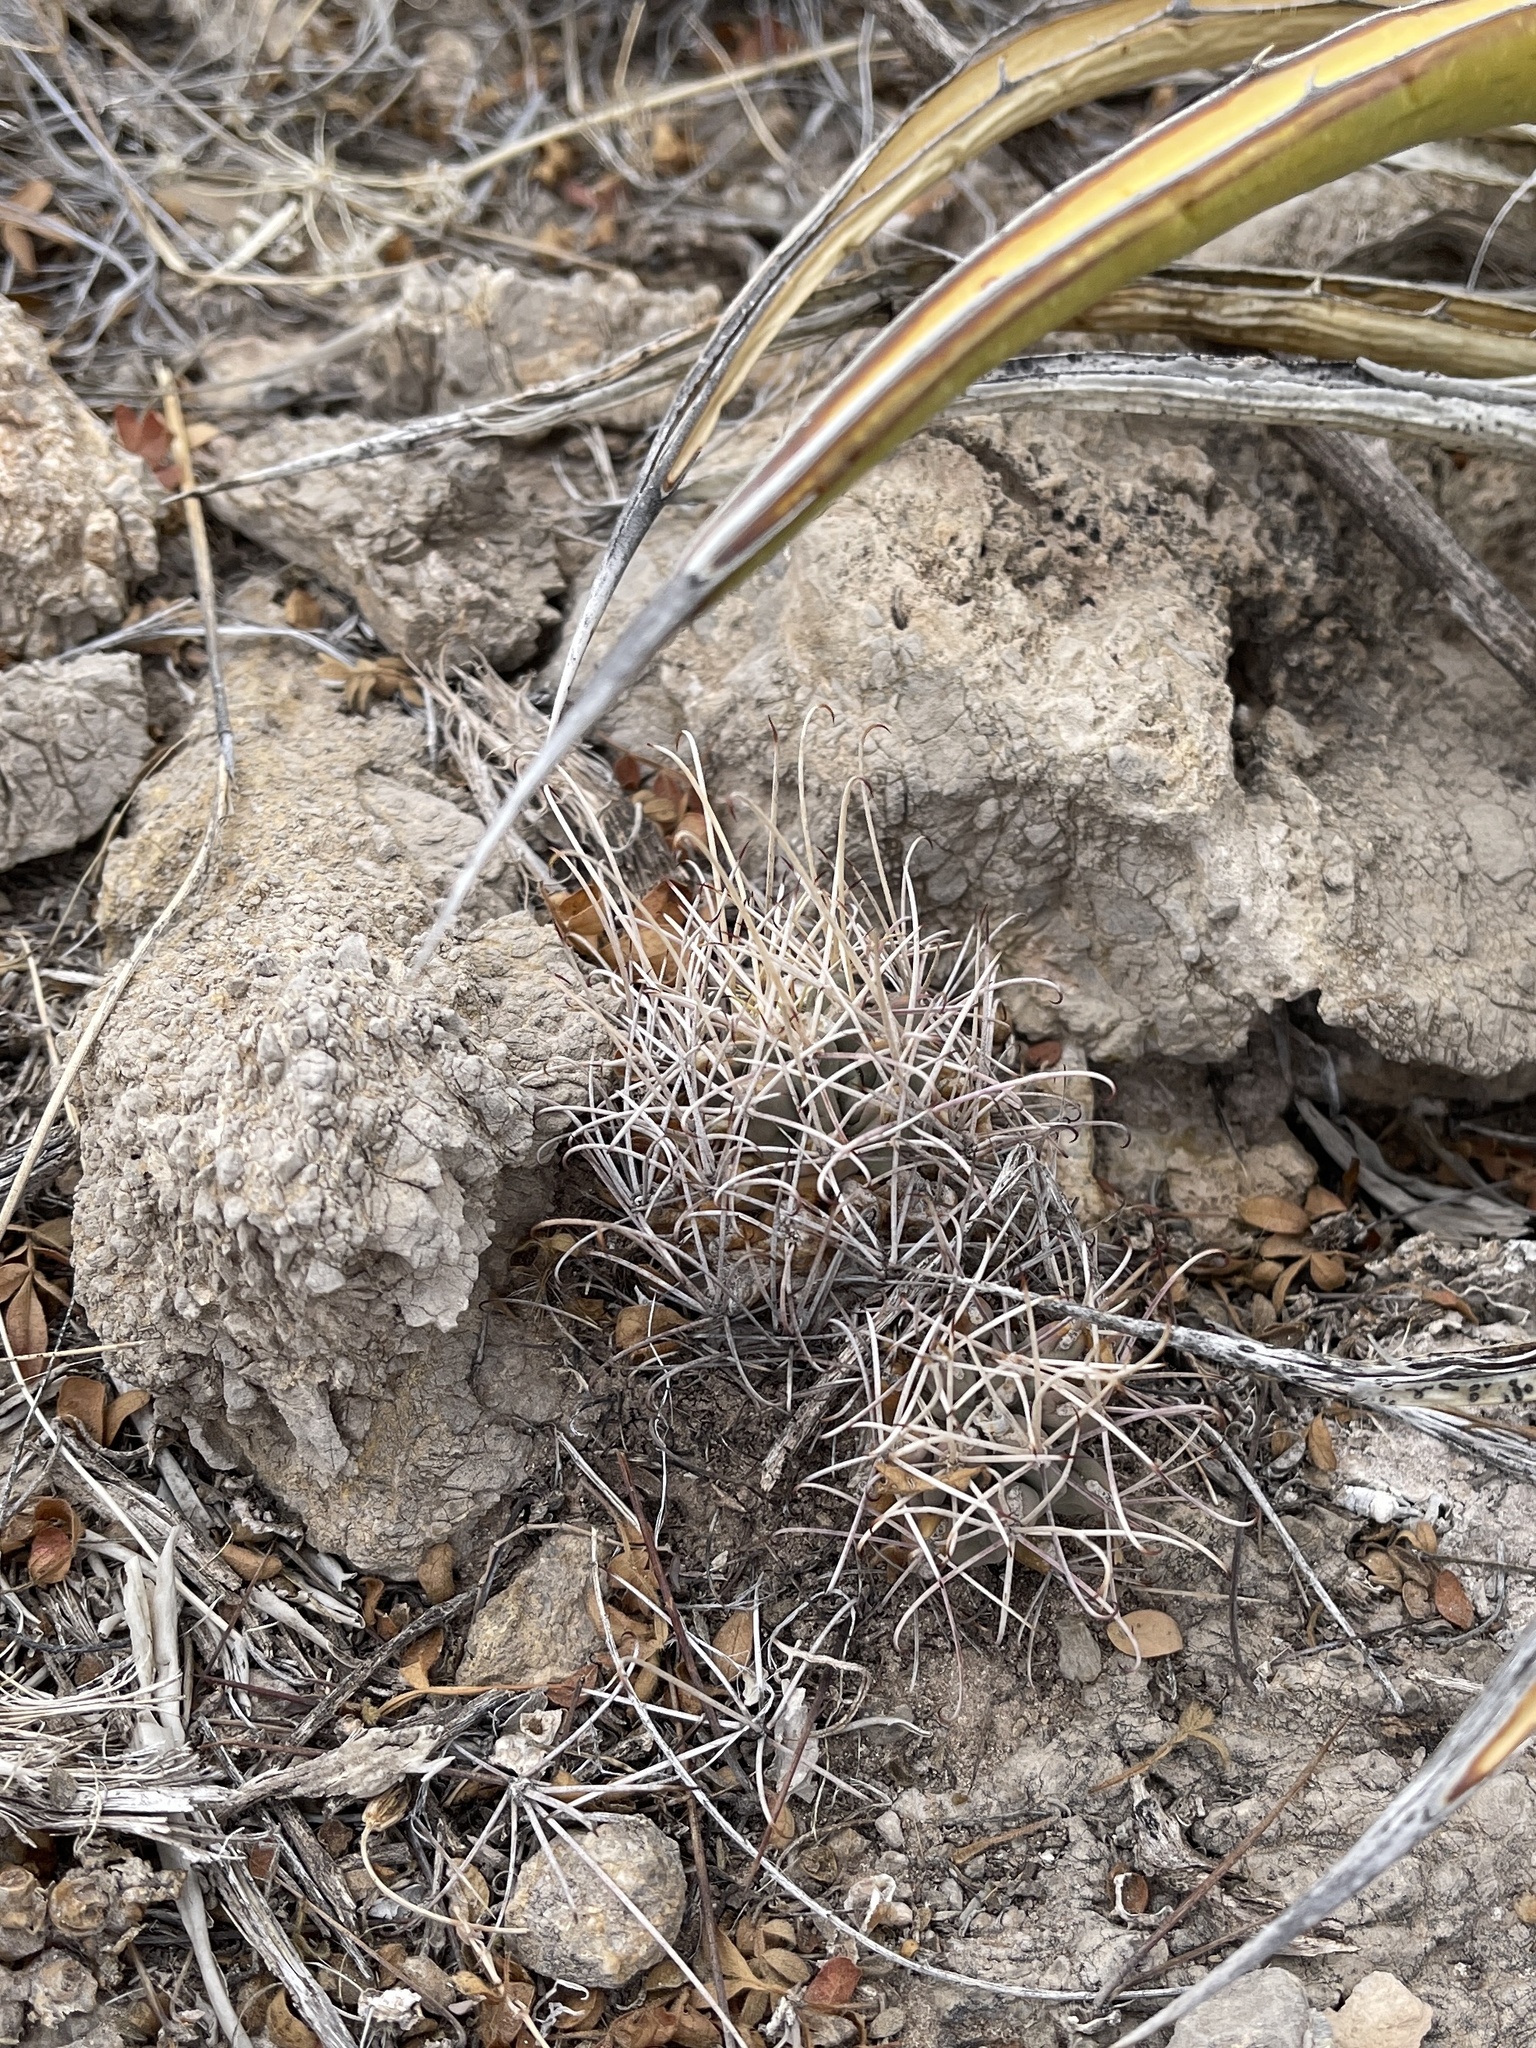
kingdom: Plantae
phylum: Tracheophyta
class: Magnoliopsida
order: Caryophyllales
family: Cactaceae
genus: Ferocactus
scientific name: Ferocactus uncinatus
